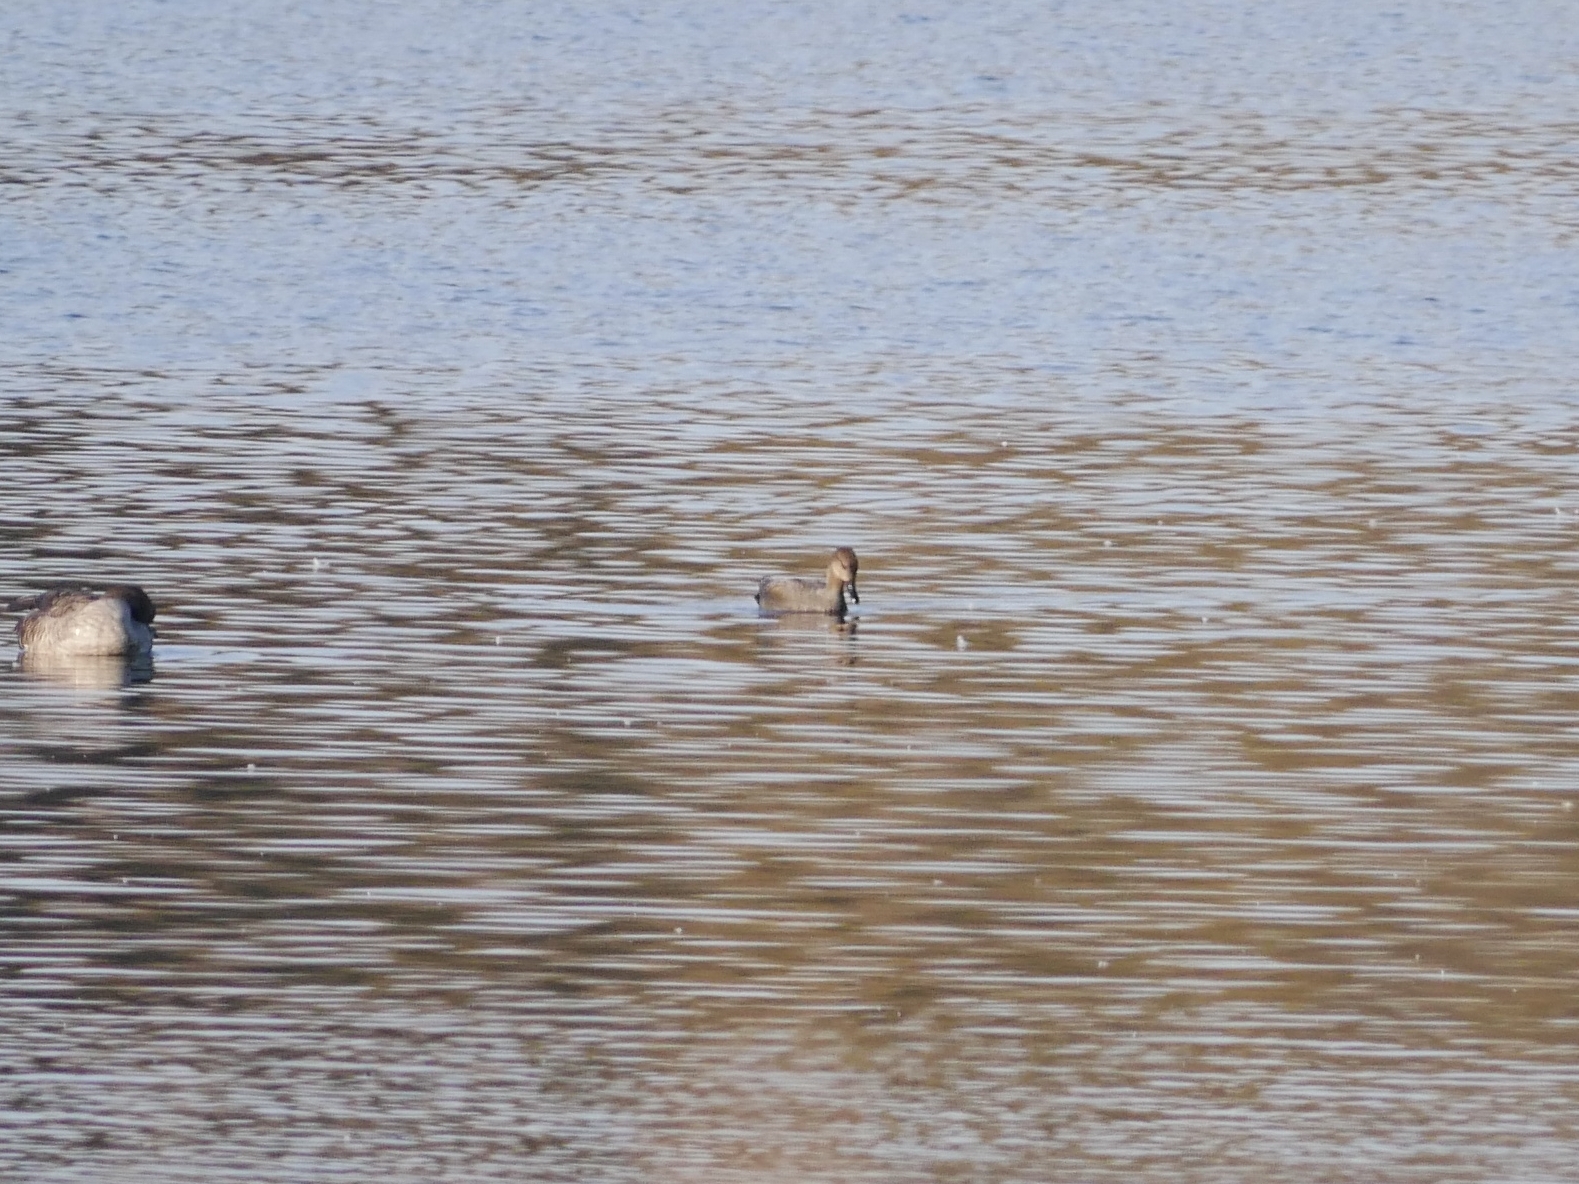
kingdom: Animalia
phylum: Chordata
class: Aves
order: Anseriformes
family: Anatidae
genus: Mareca
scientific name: Mareca strepera
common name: Gadwall
